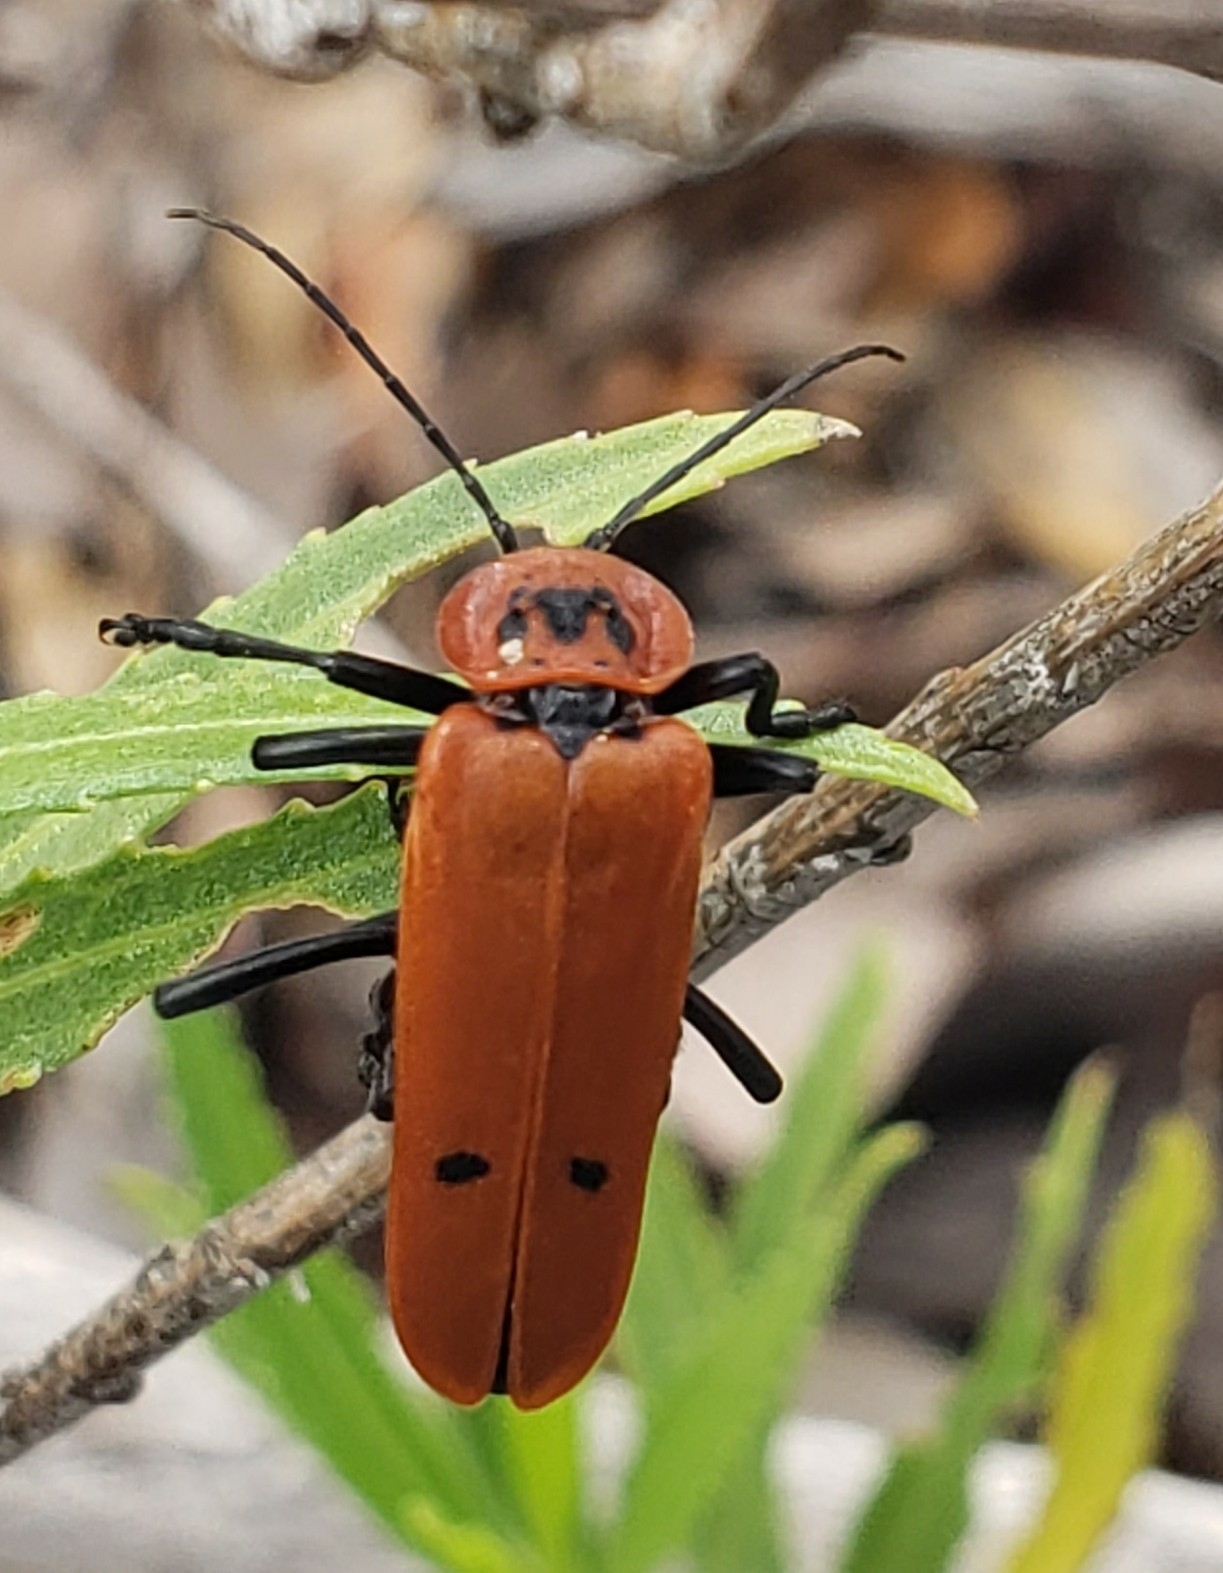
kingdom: Animalia
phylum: Arthropoda
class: Insecta
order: Coleoptera
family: Cantharidae
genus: Chauliognathus
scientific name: Chauliognathus
